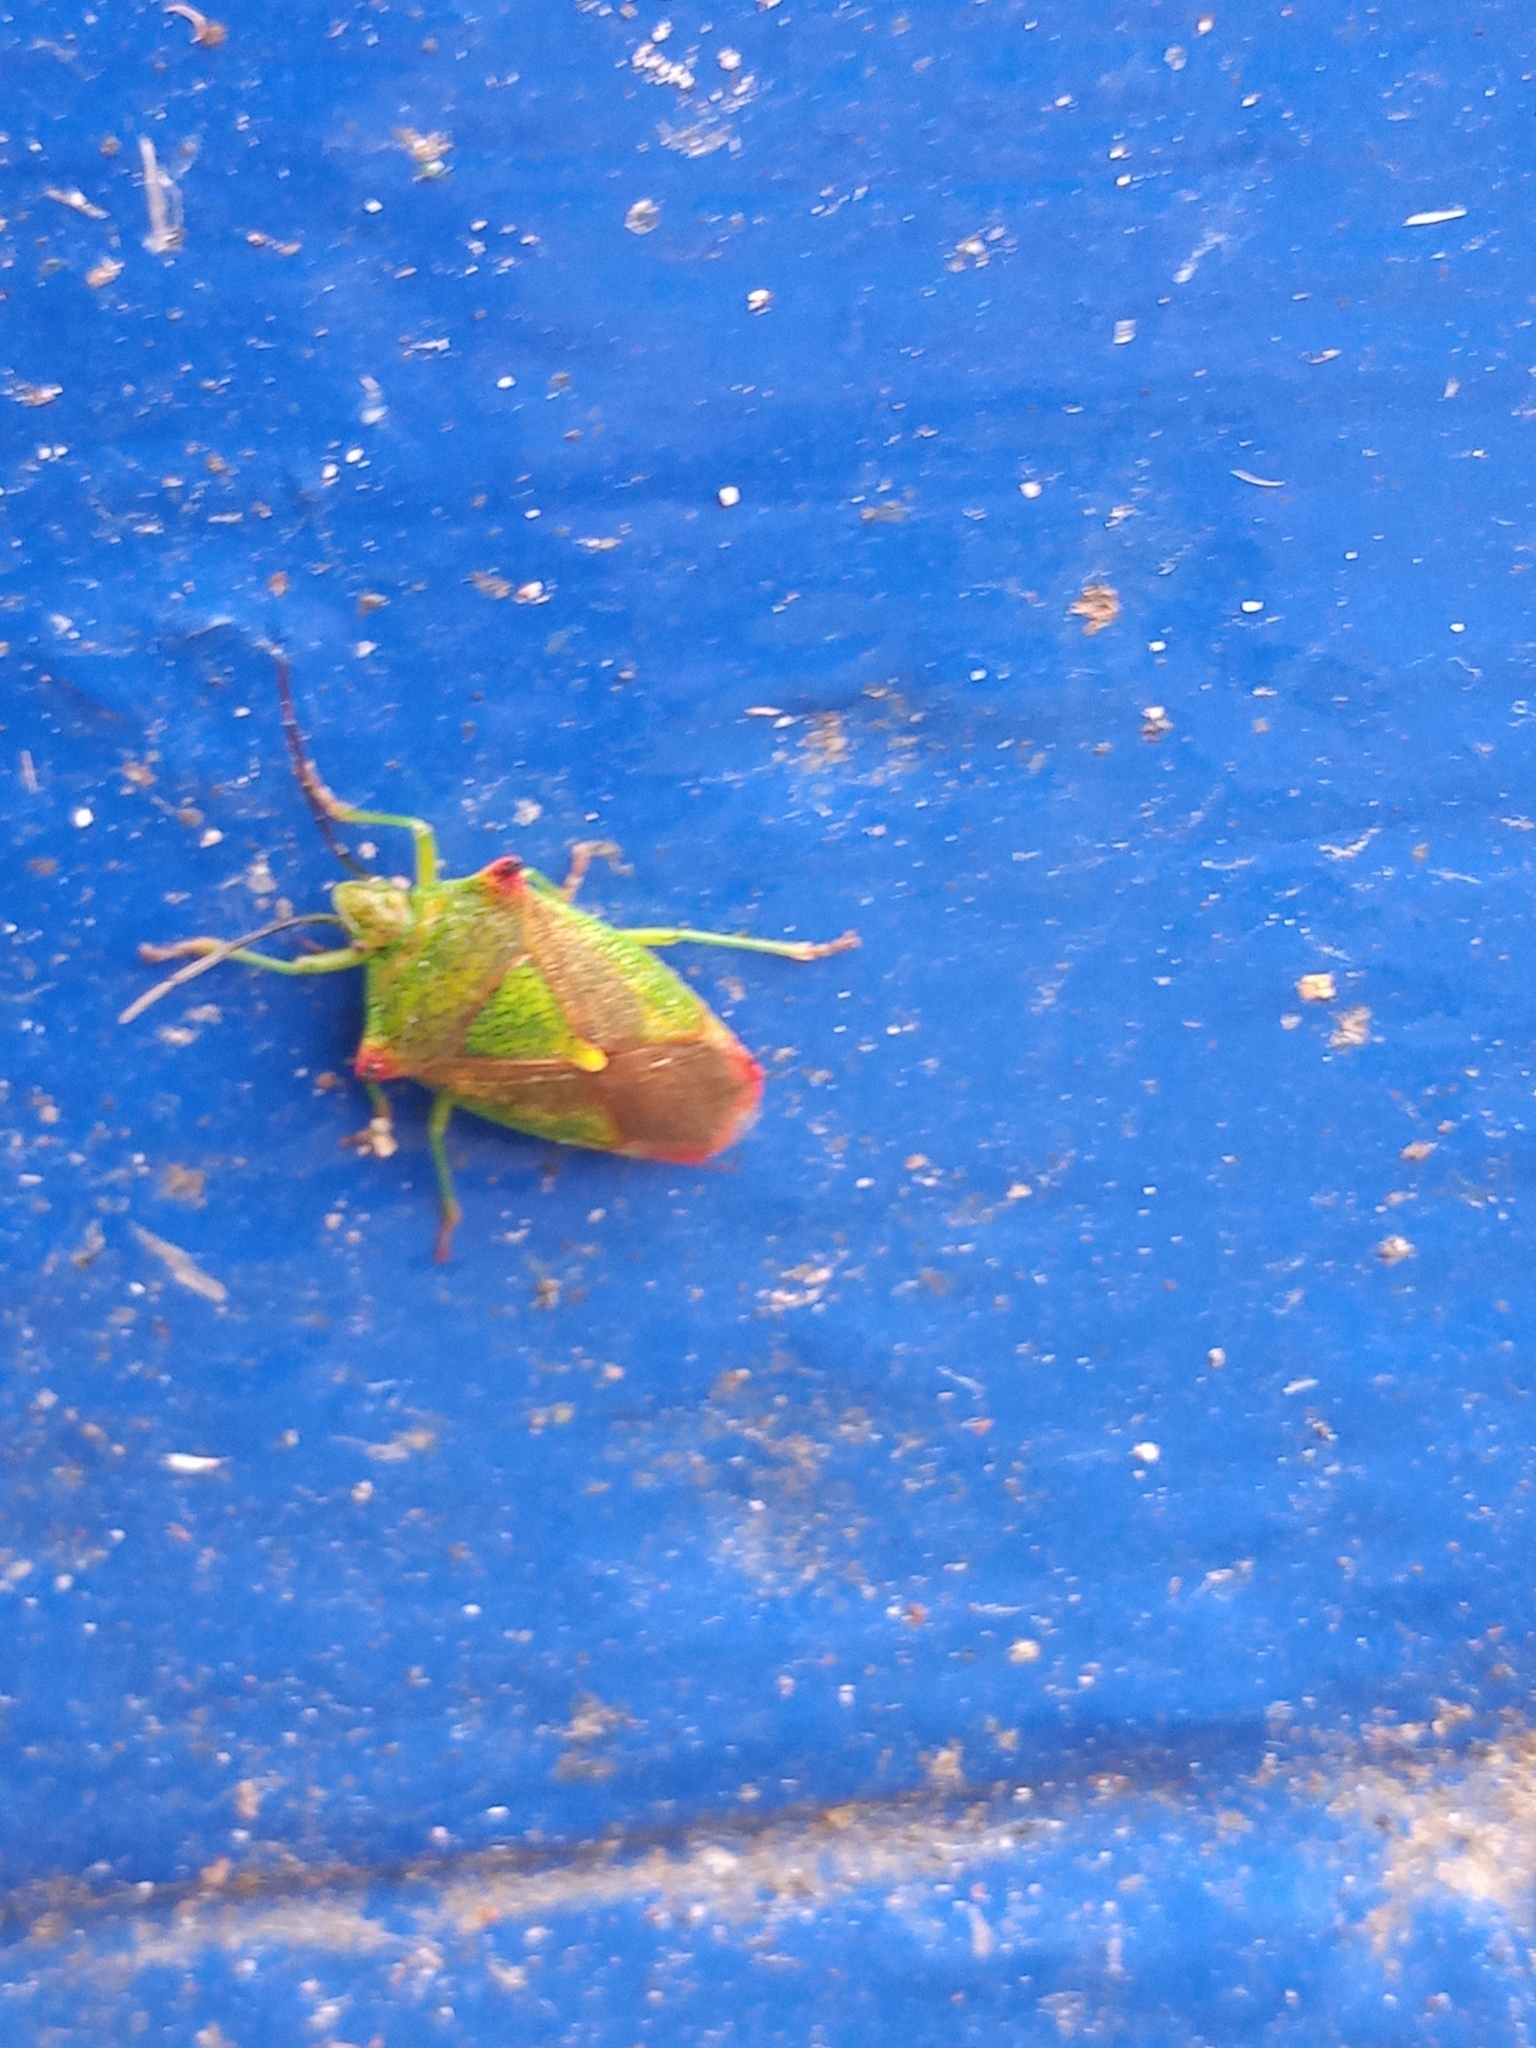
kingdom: Animalia
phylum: Arthropoda
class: Insecta
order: Hemiptera
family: Acanthosomatidae
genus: Acanthosoma
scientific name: Acanthosoma haemorrhoidale
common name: Hawthorn shieldbug
